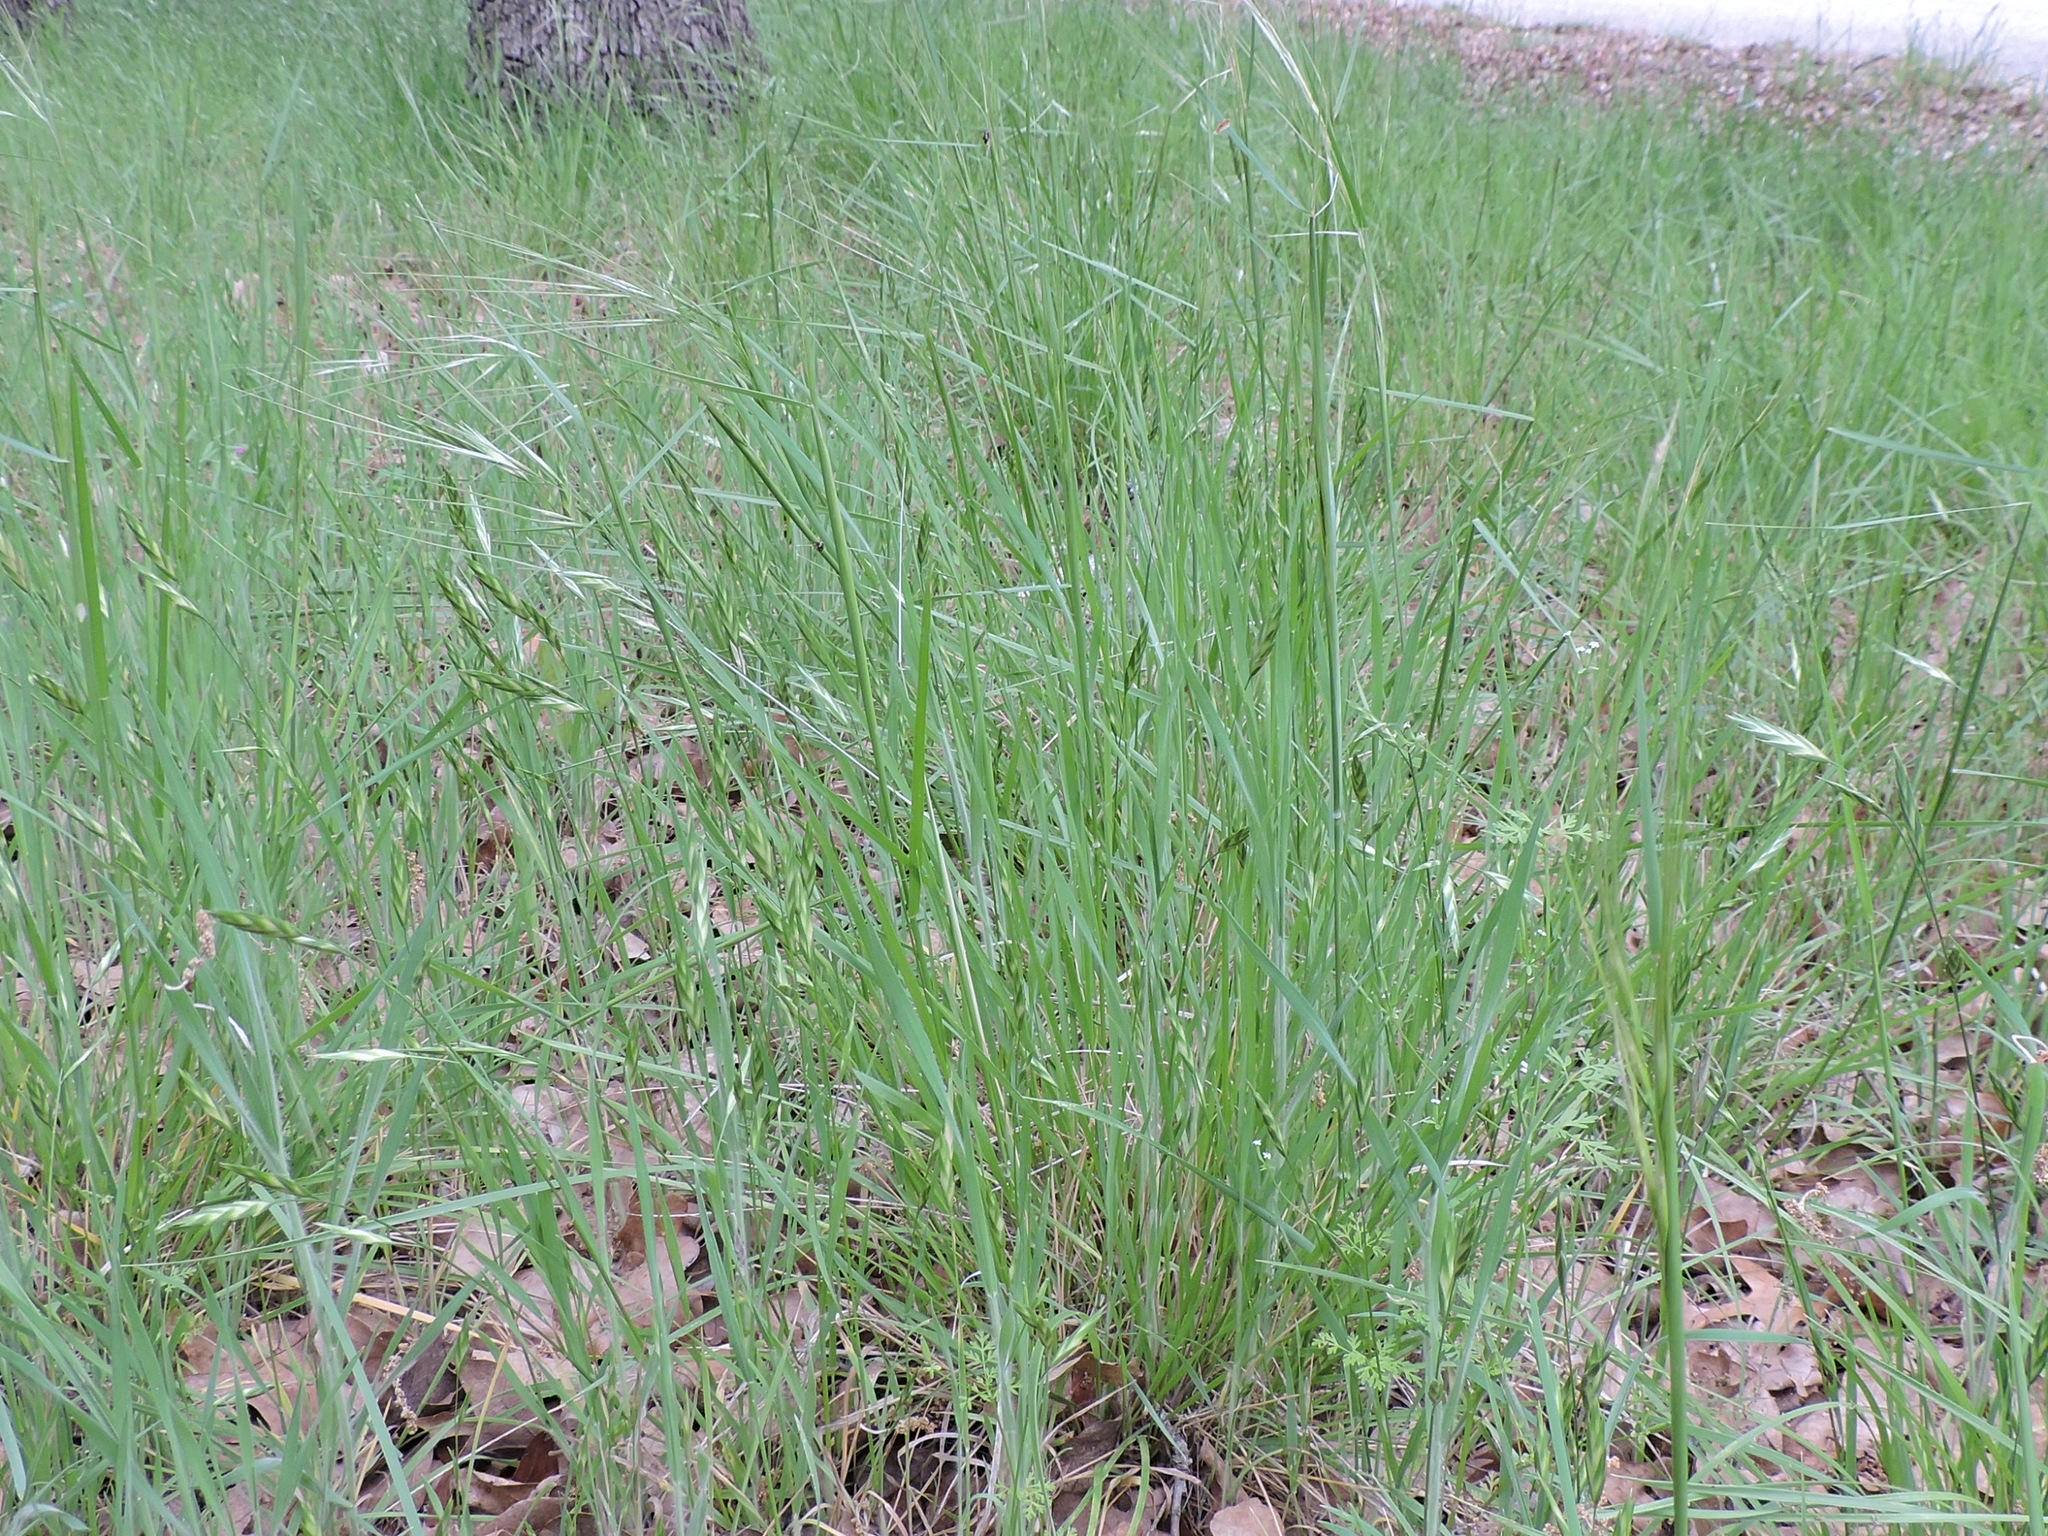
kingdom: Plantae
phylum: Tracheophyta
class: Liliopsida
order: Poales
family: Poaceae
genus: Nassella
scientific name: Nassella leucotricha
